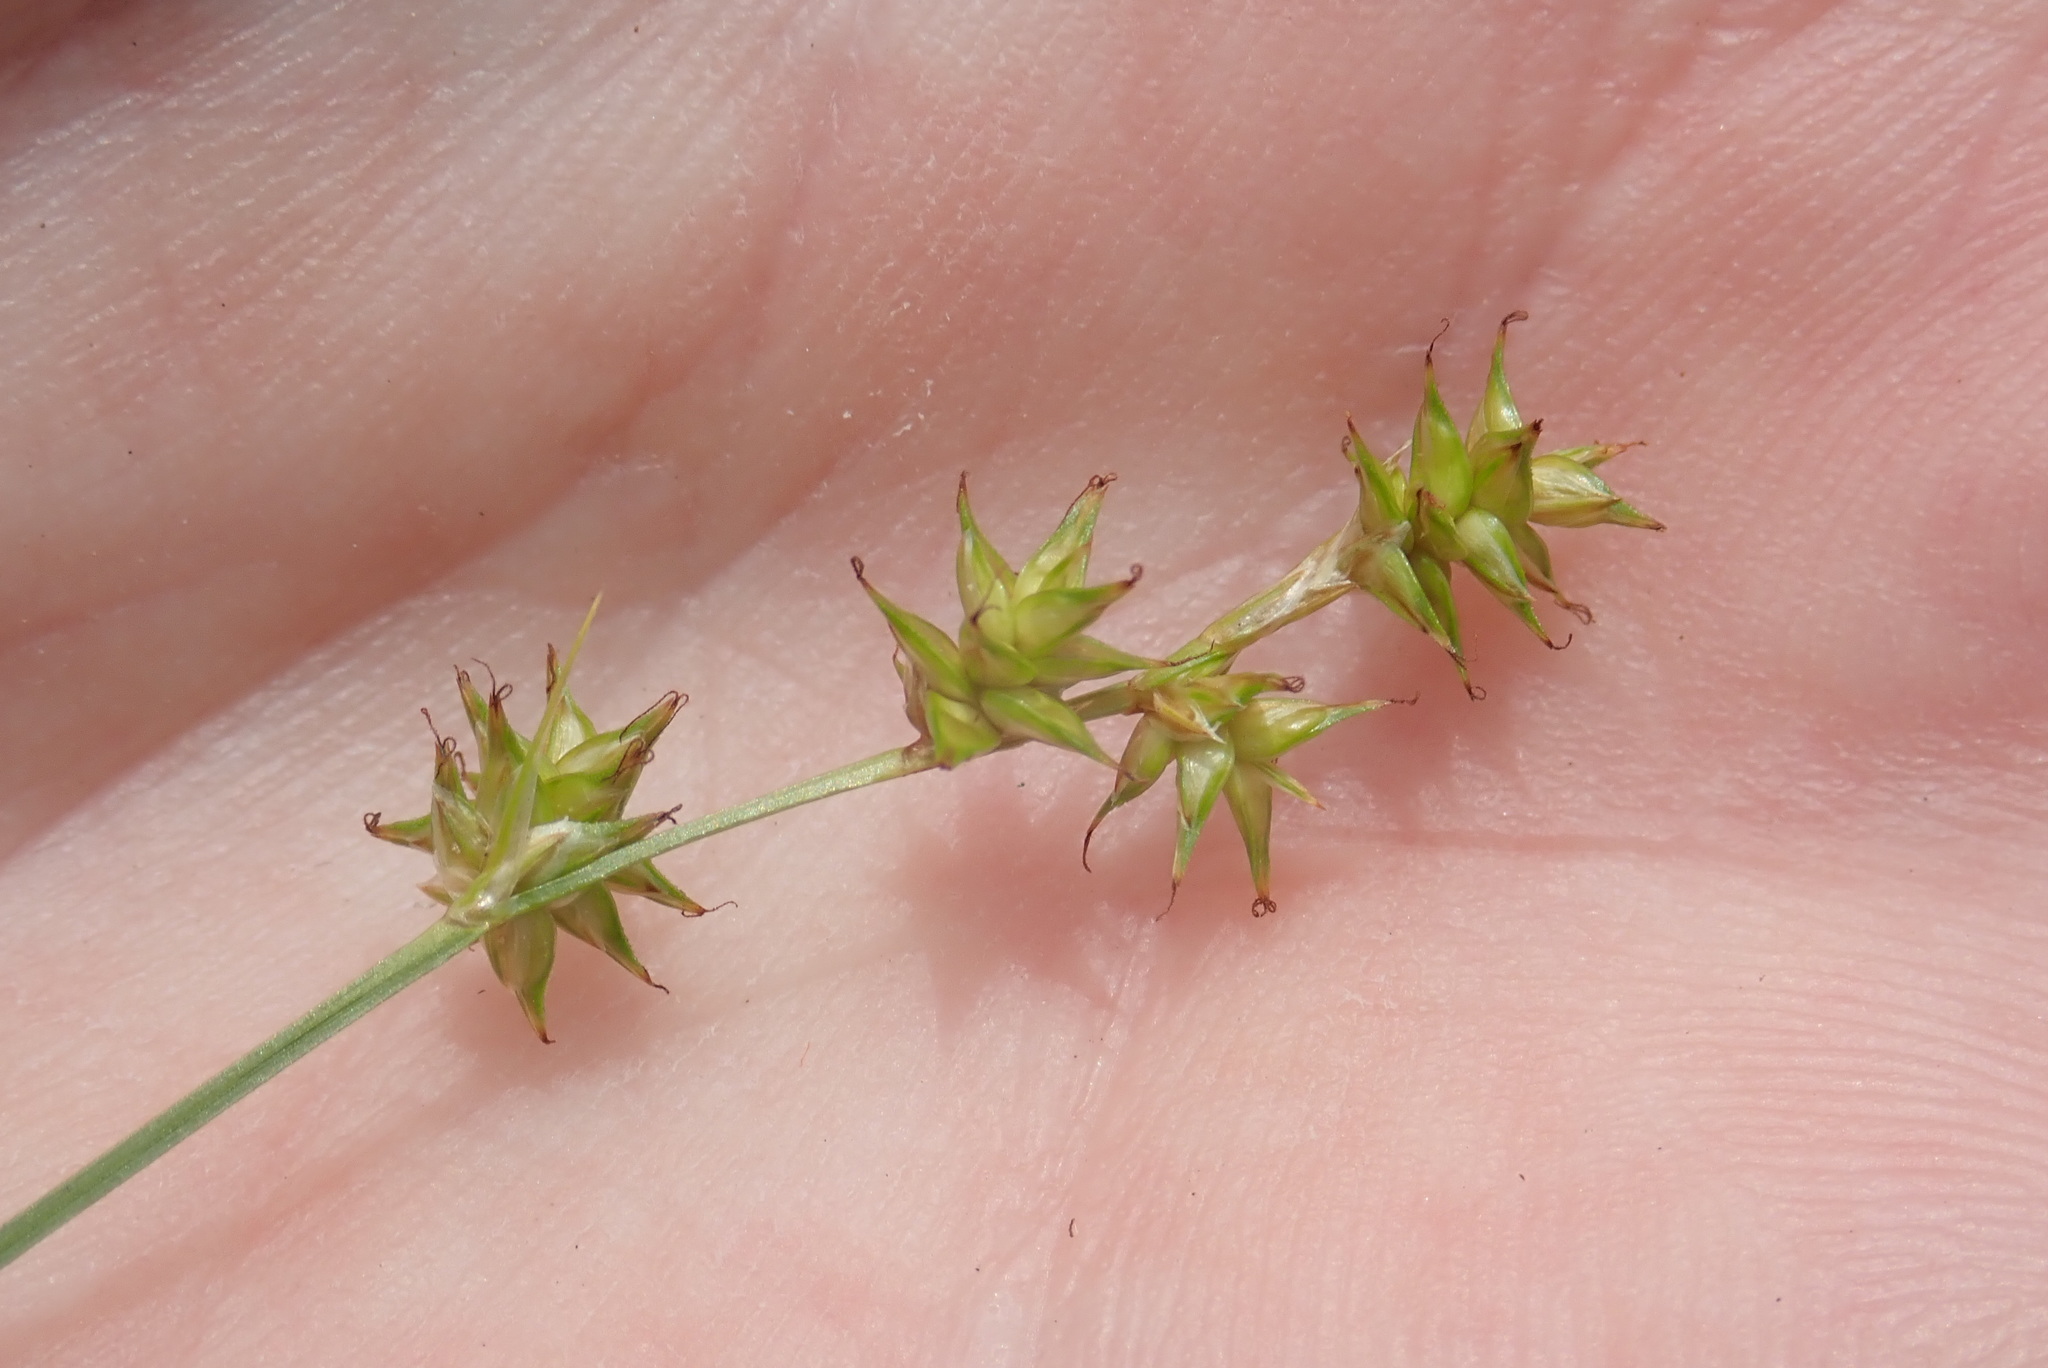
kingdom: Plantae
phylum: Tracheophyta
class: Liliopsida
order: Poales
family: Cyperaceae
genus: Carex
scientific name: Carex interior
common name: Inland sedge
